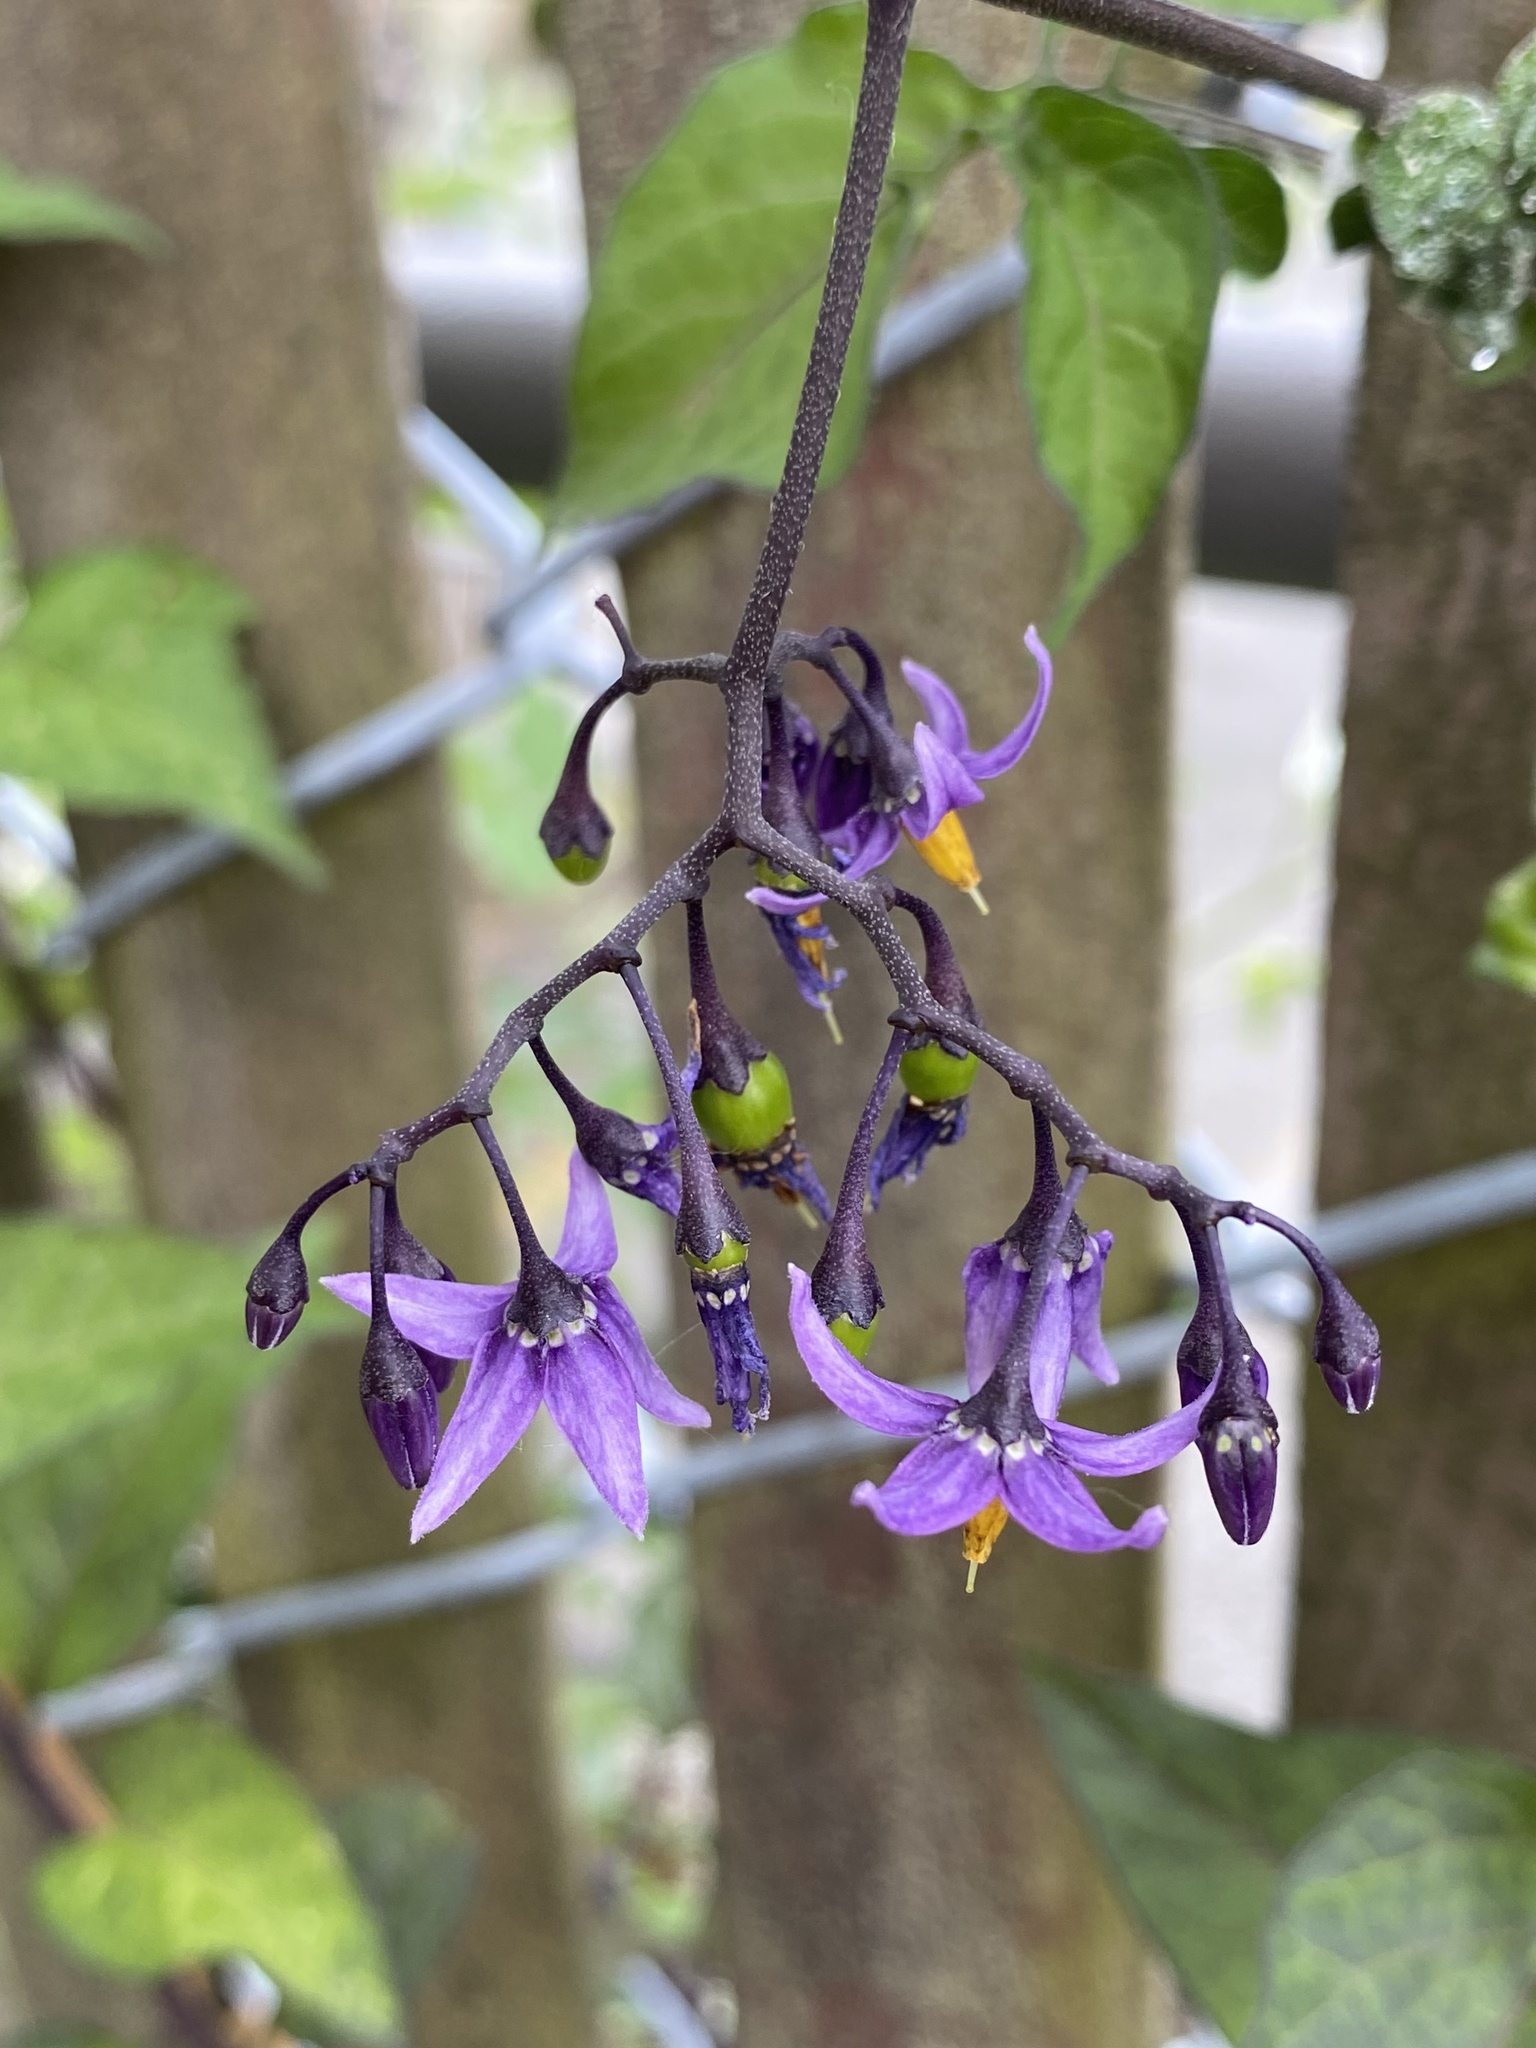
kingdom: Plantae
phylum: Tracheophyta
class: Magnoliopsida
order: Solanales
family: Solanaceae
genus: Solanum
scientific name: Solanum dulcamara
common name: Climbing nightshade
